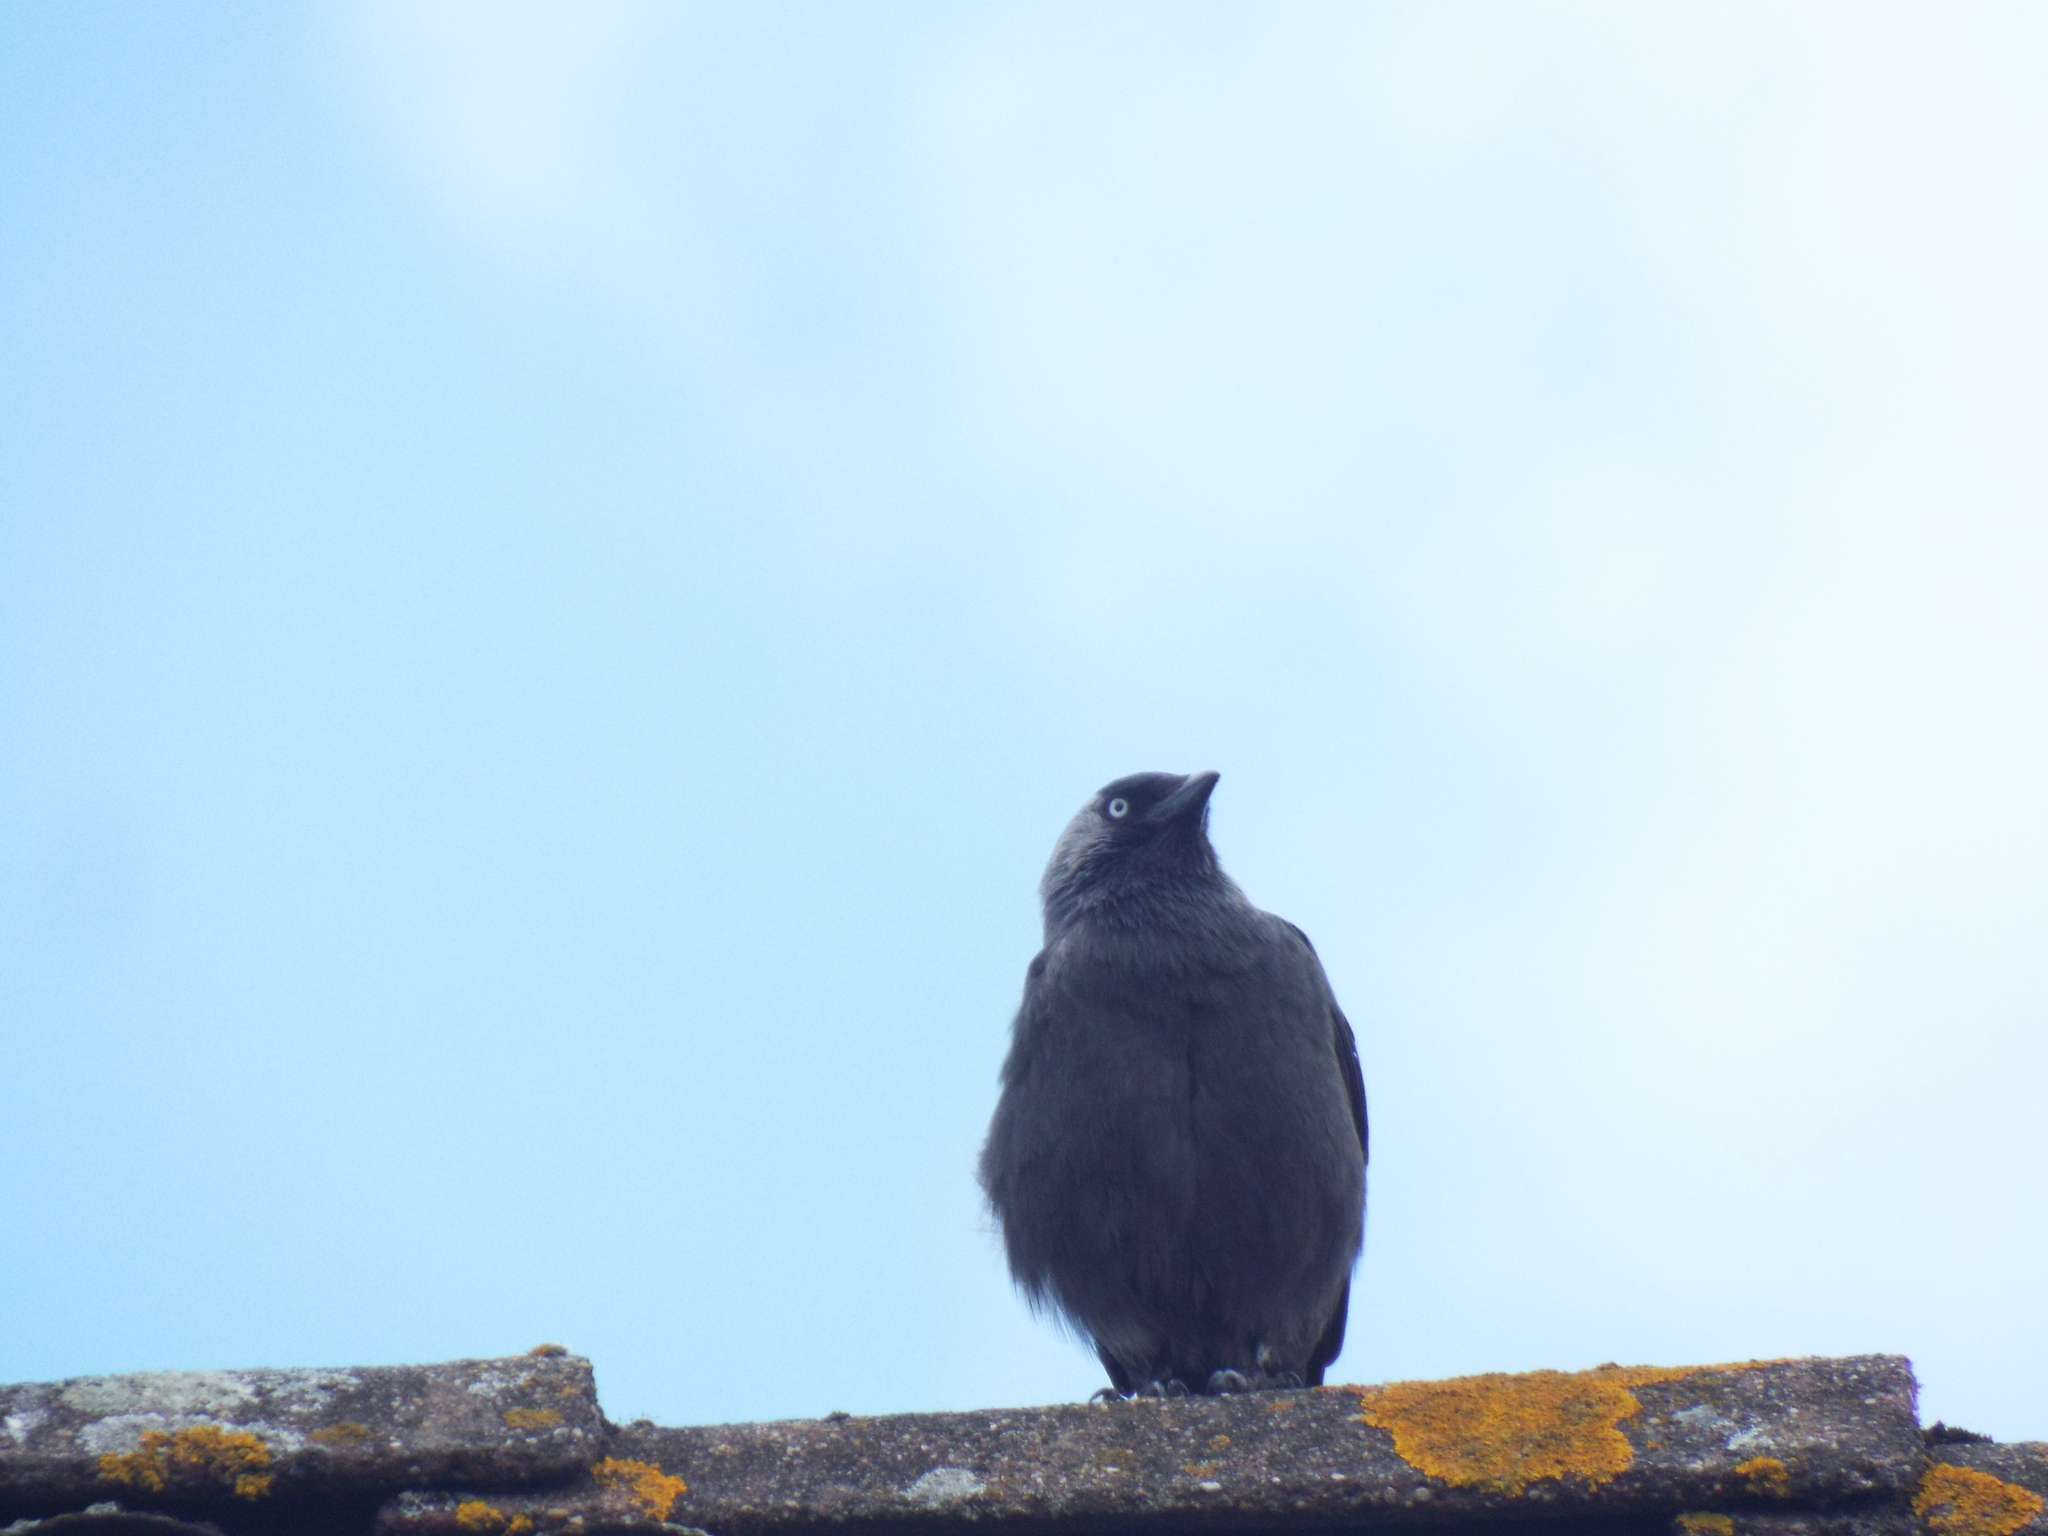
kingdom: Animalia
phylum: Chordata
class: Aves
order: Passeriformes
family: Corvidae
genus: Coloeus
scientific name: Coloeus monedula
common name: Western jackdaw
